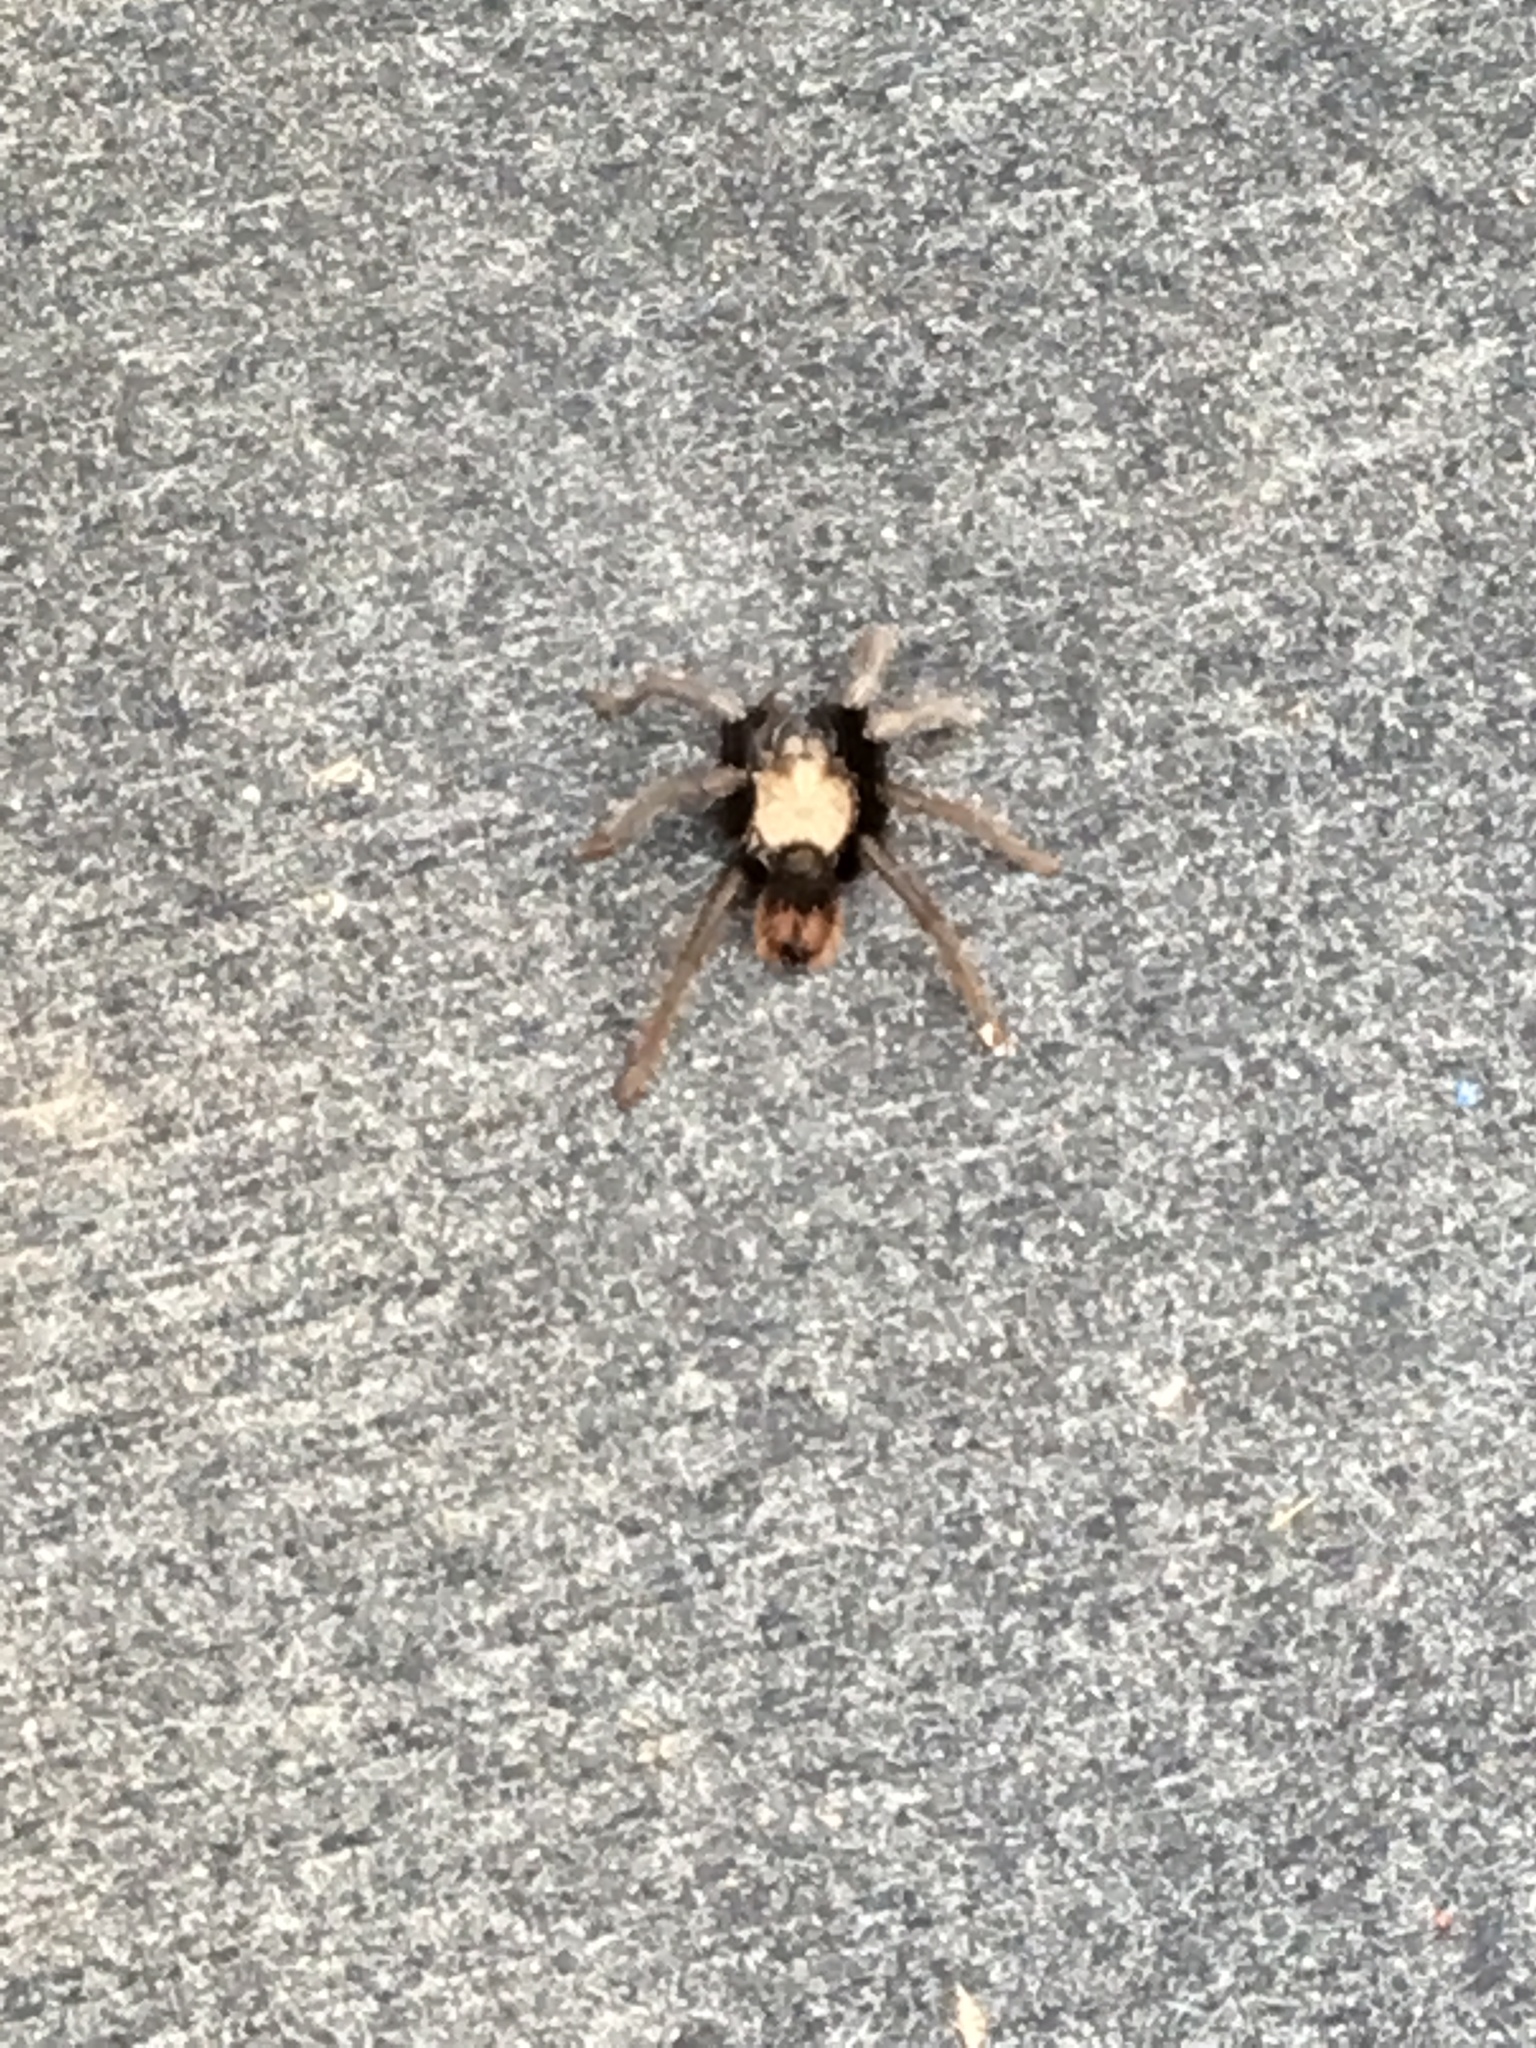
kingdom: Animalia
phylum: Arthropoda
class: Arachnida
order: Araneae
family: Theraphosidae
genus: Aphonopelma
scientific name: Aphonopelma eutylenum
